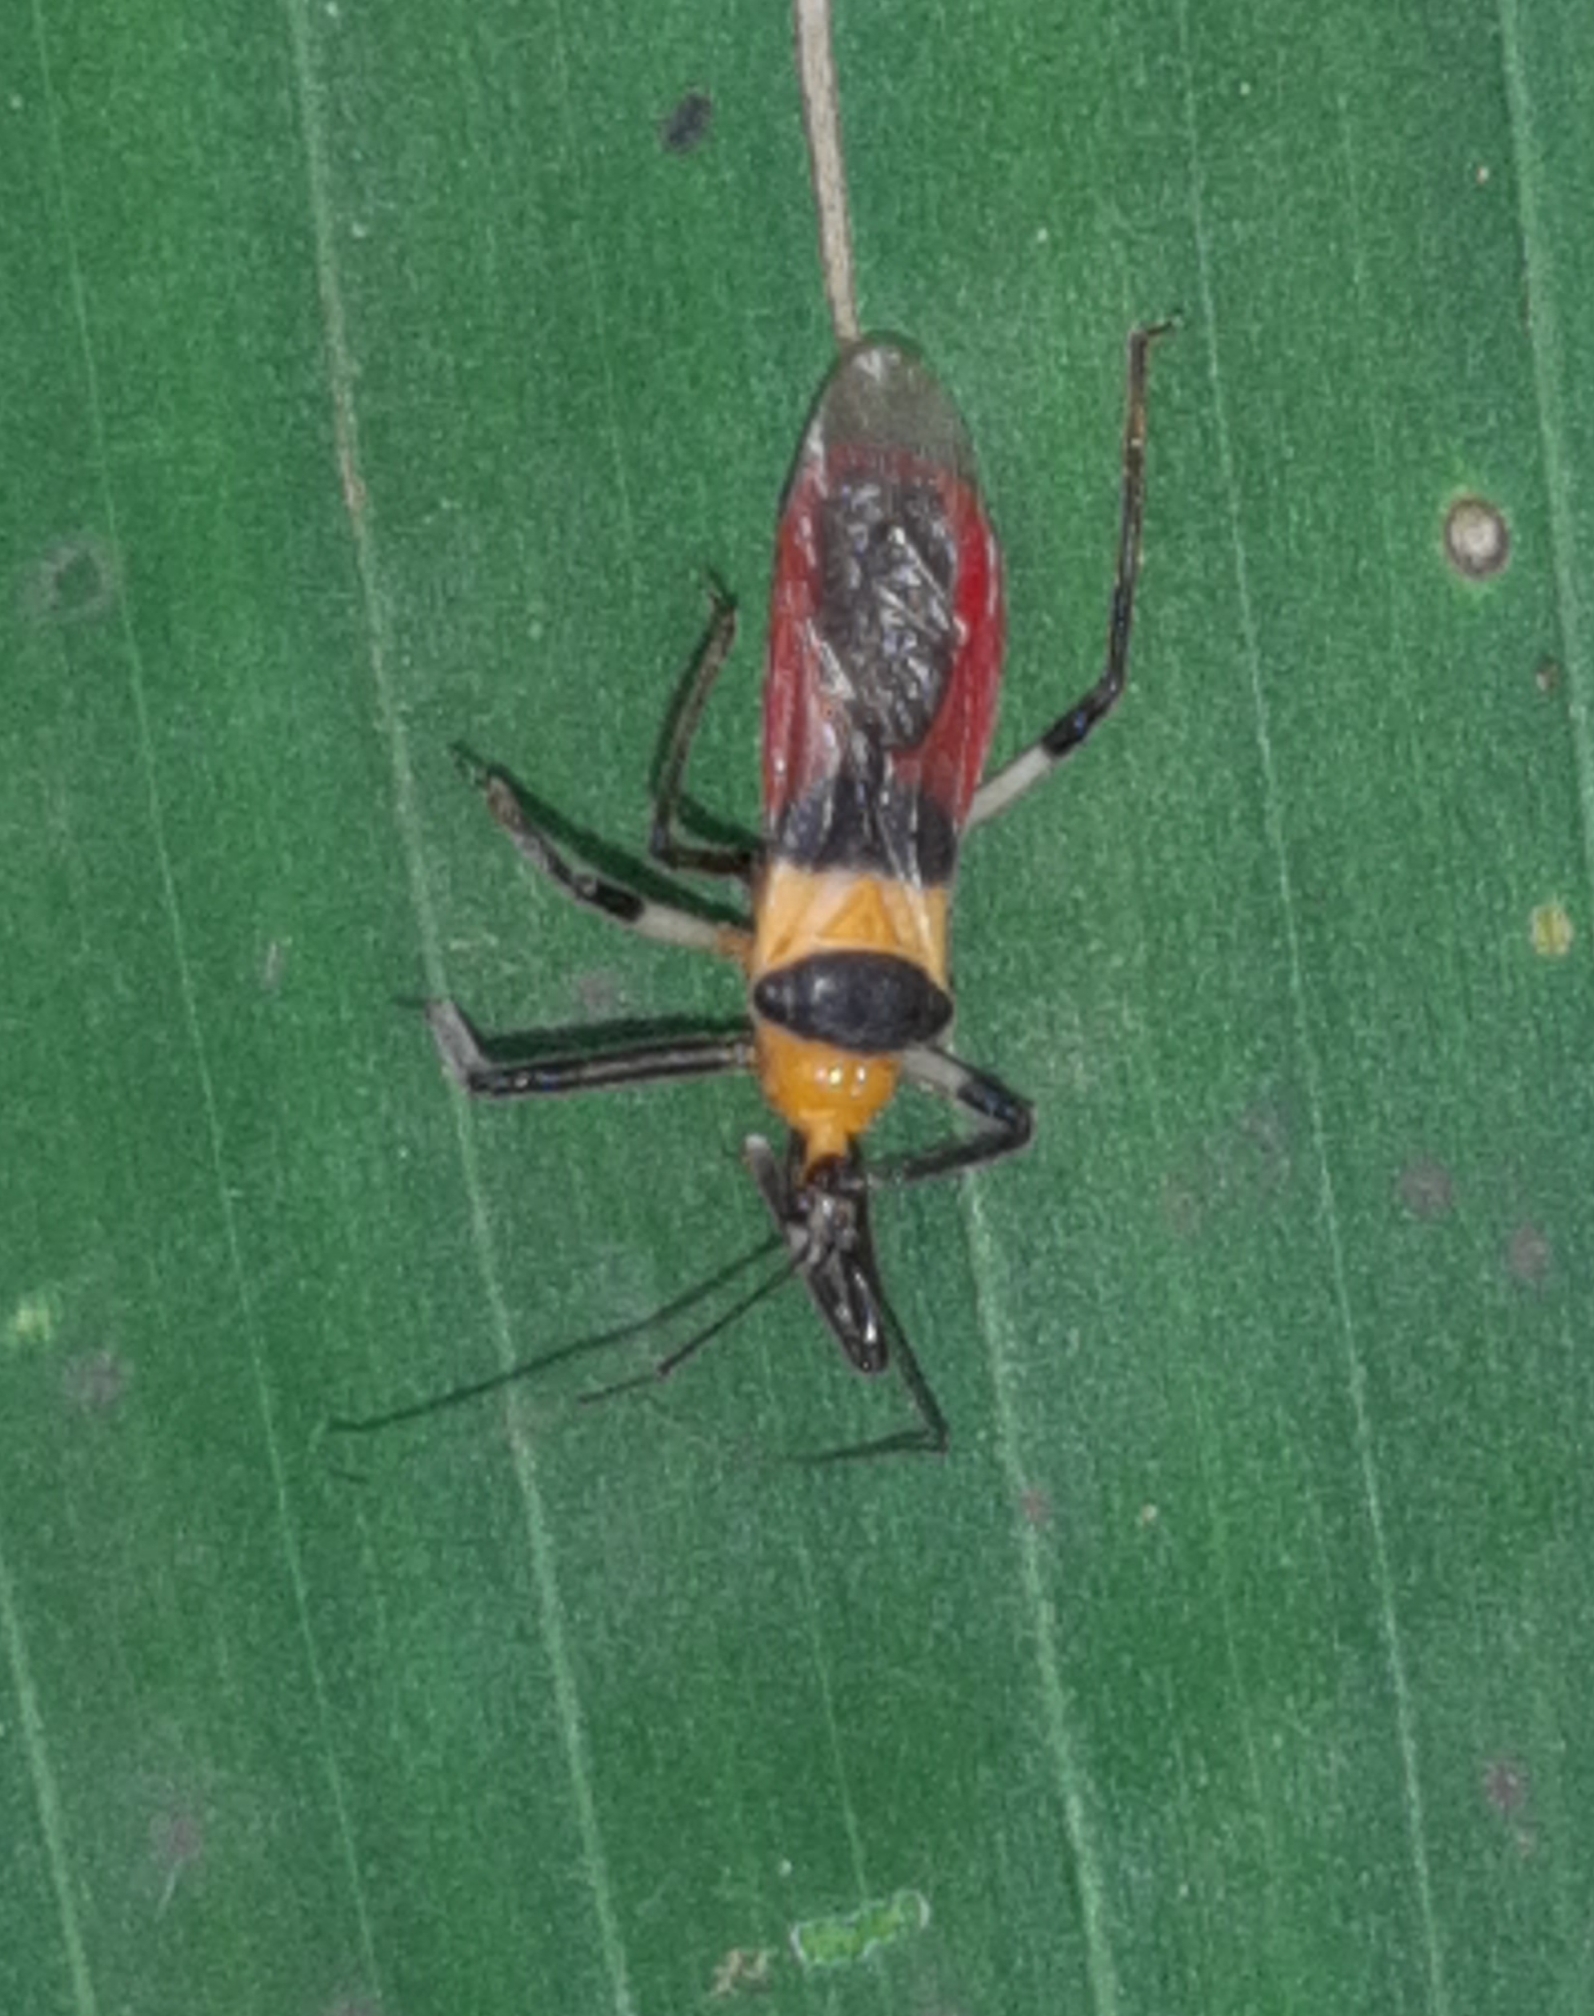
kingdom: Animalia
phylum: Arthropoda
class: Insecta
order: Hemiptera
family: Reduviidae
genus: Castolus
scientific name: Castolus tricolor
